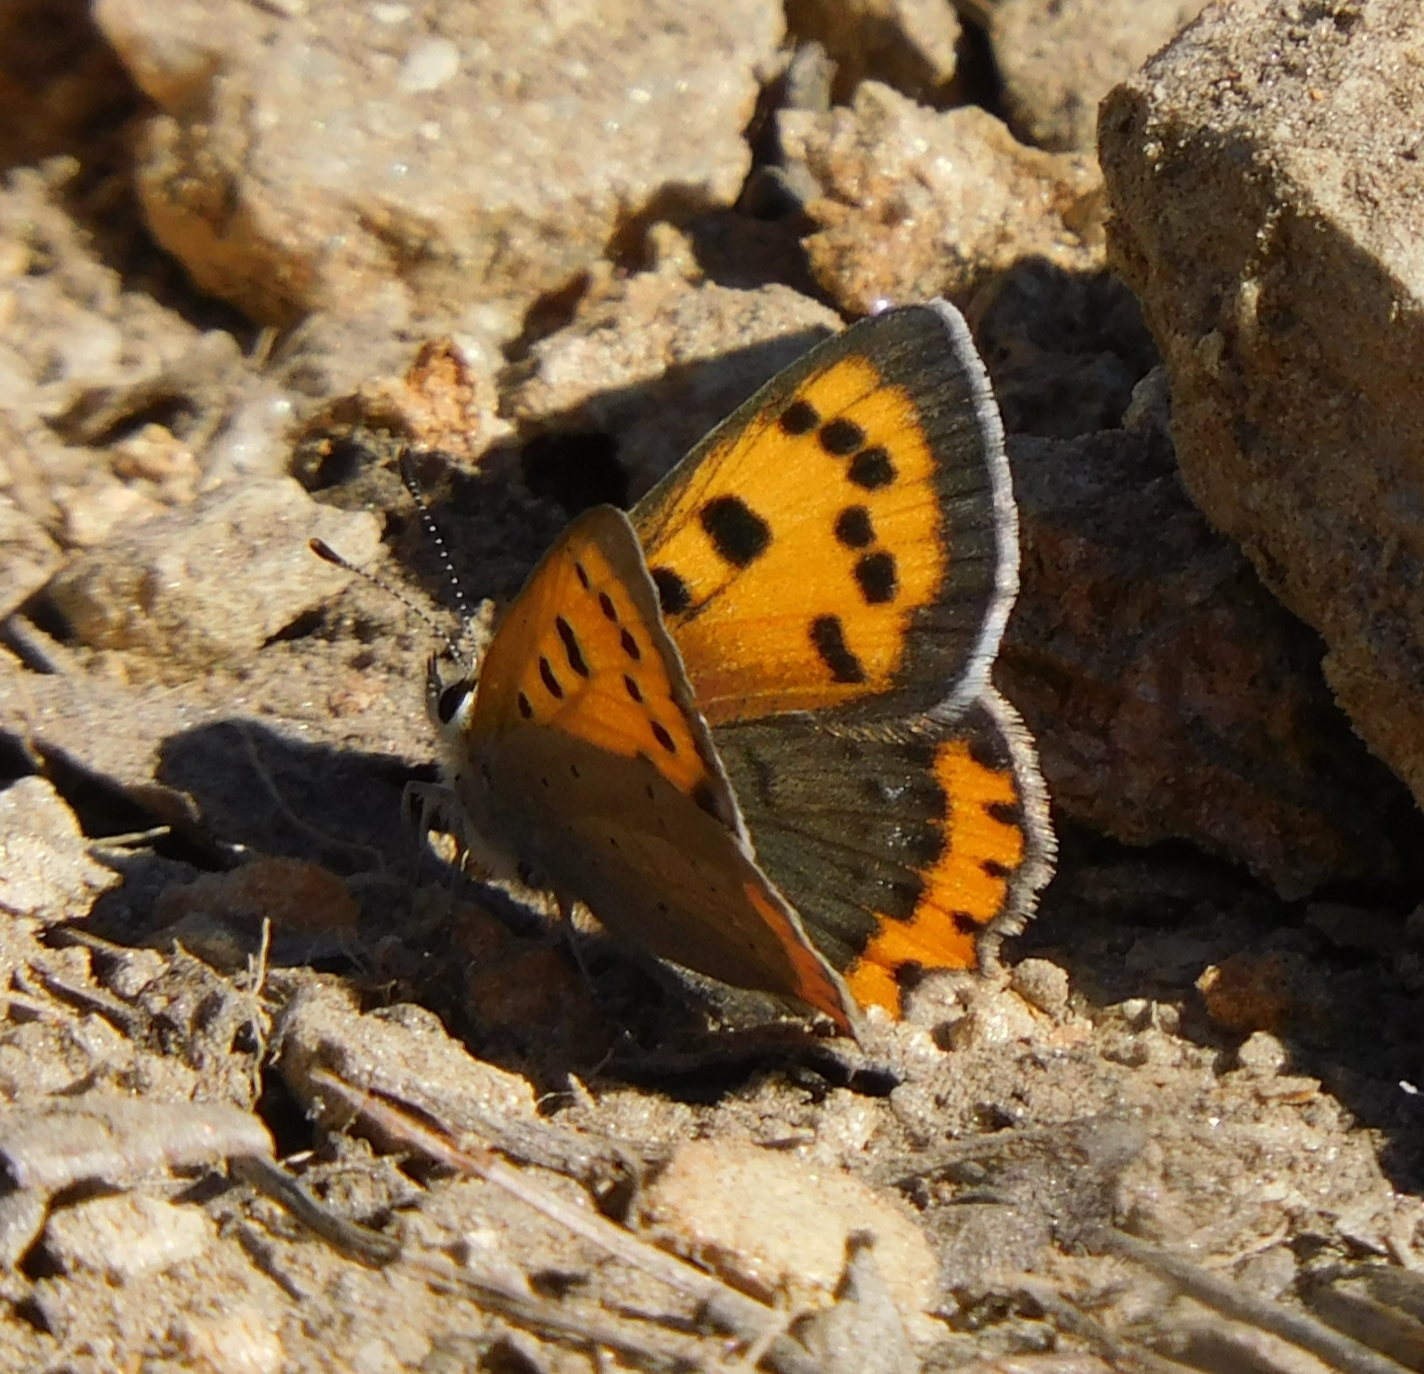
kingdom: Animalia
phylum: Arthropoda
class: Insecta
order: Lepidoptera
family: Lycaenidae
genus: Lycaena
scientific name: Lycaena phlaeas
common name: Small copper
